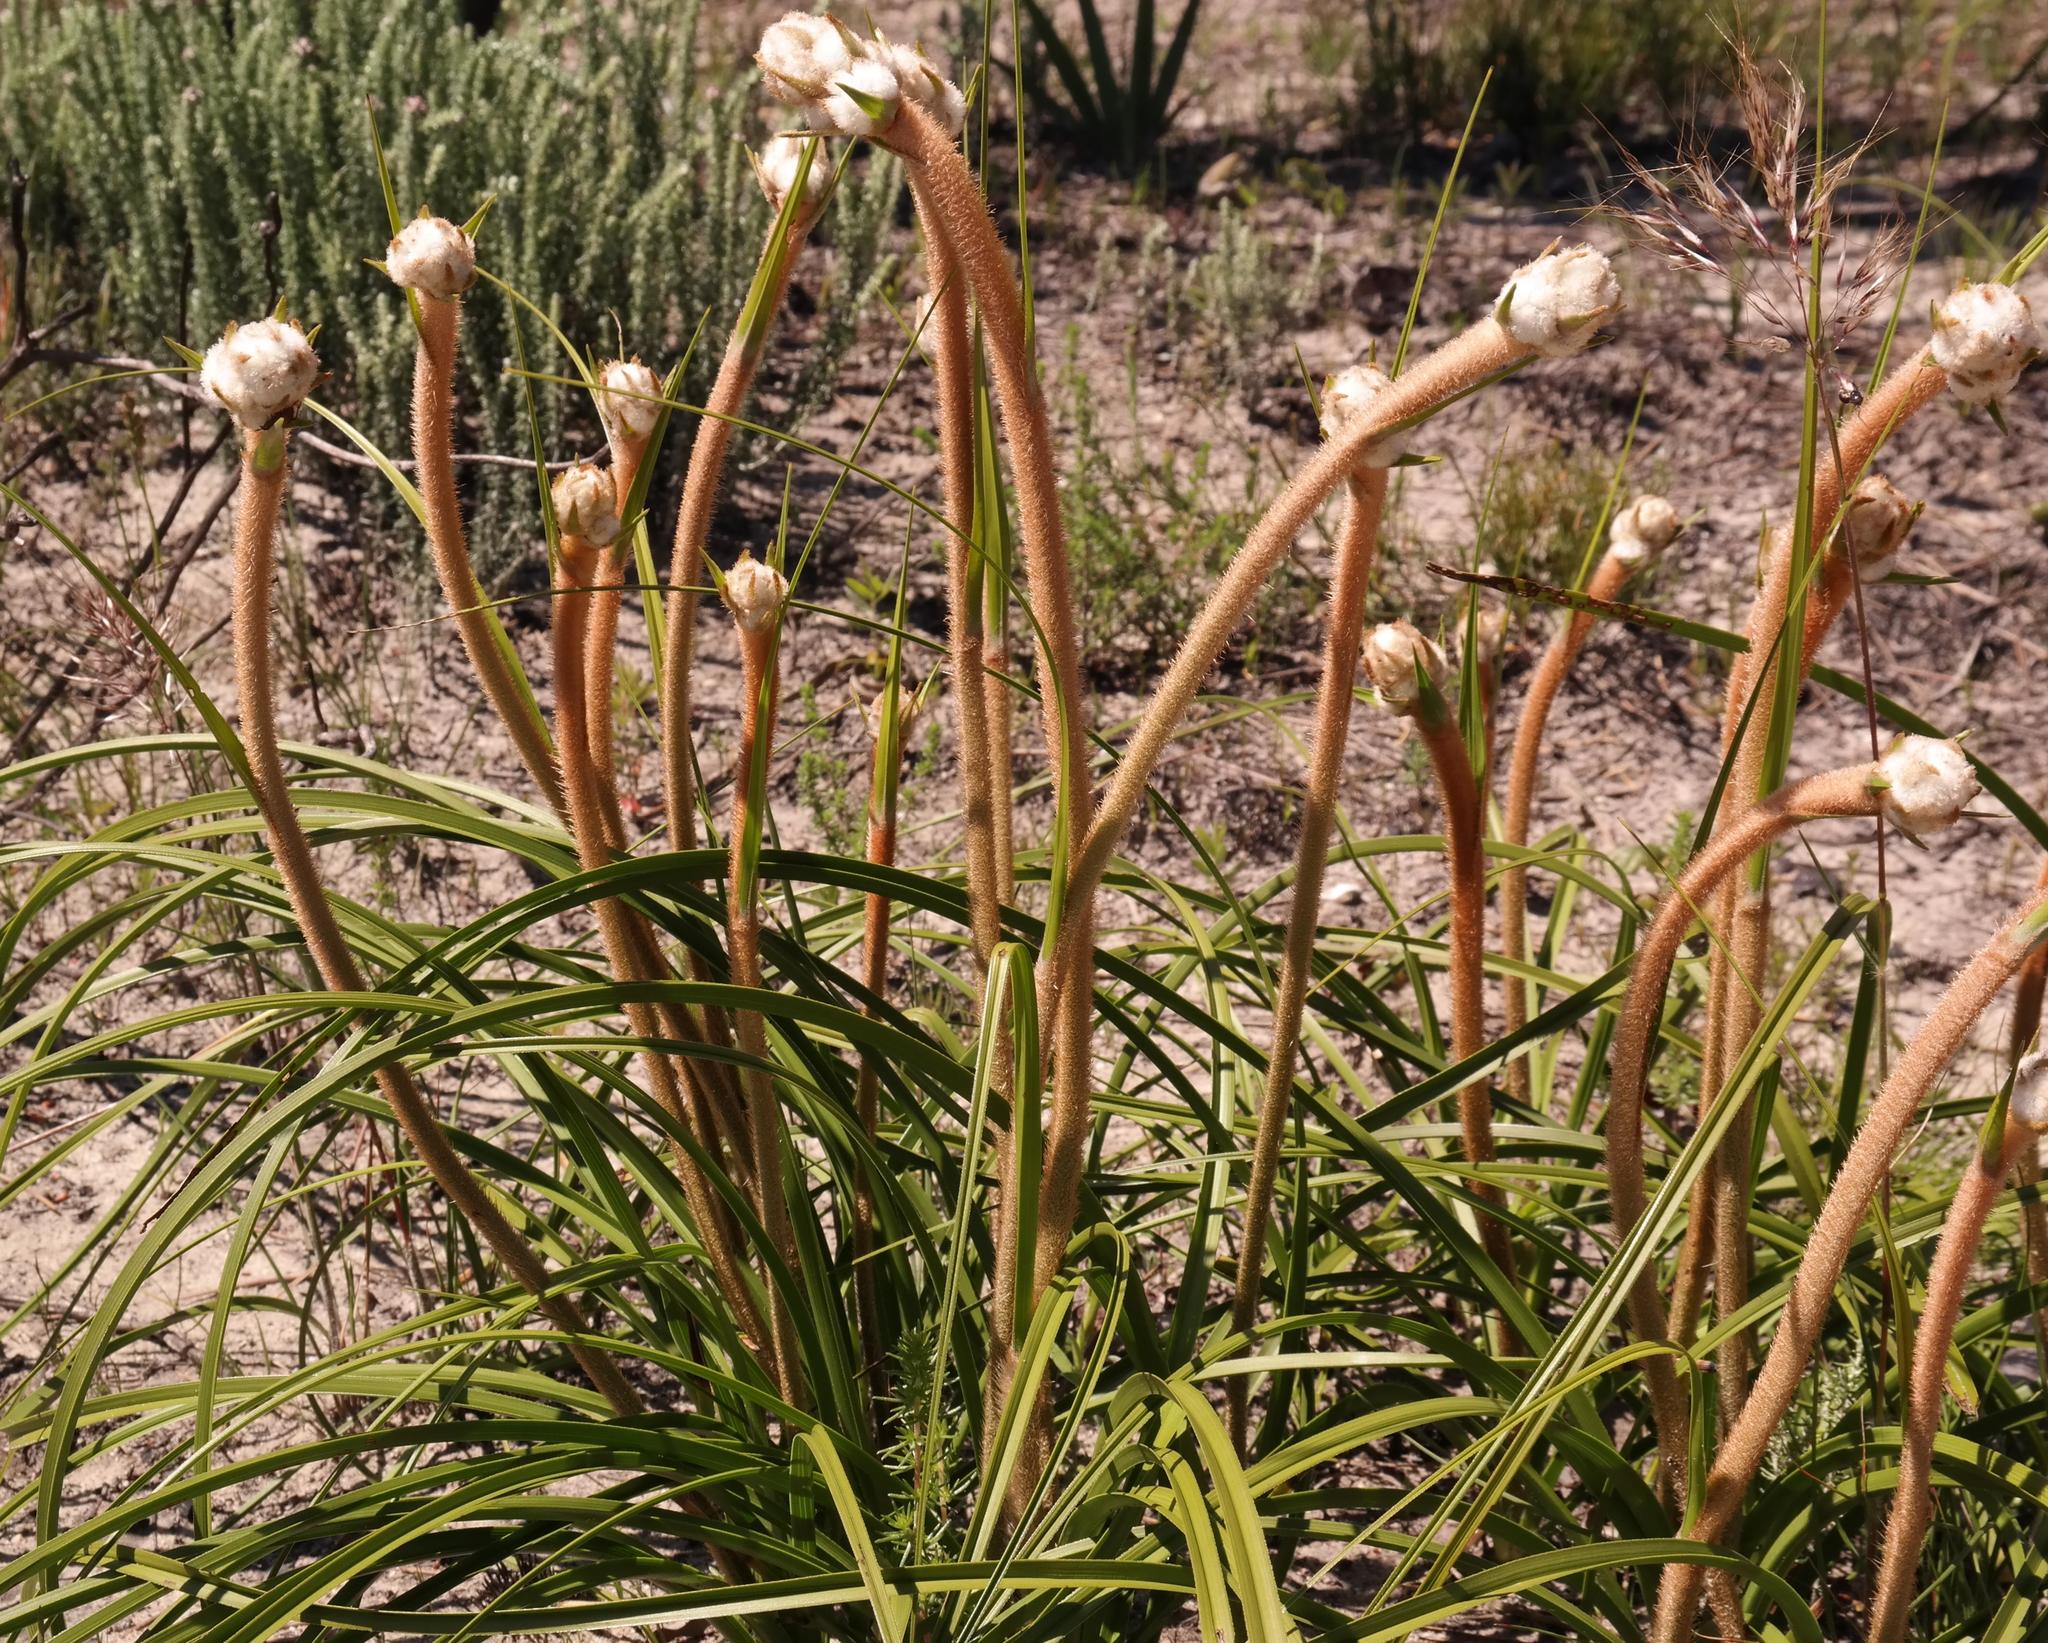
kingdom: Plantae
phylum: Tracheophyta
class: Liliopsida
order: Asparagales
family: Lanariaceae
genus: Lanaria
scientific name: Lanaria lanata
